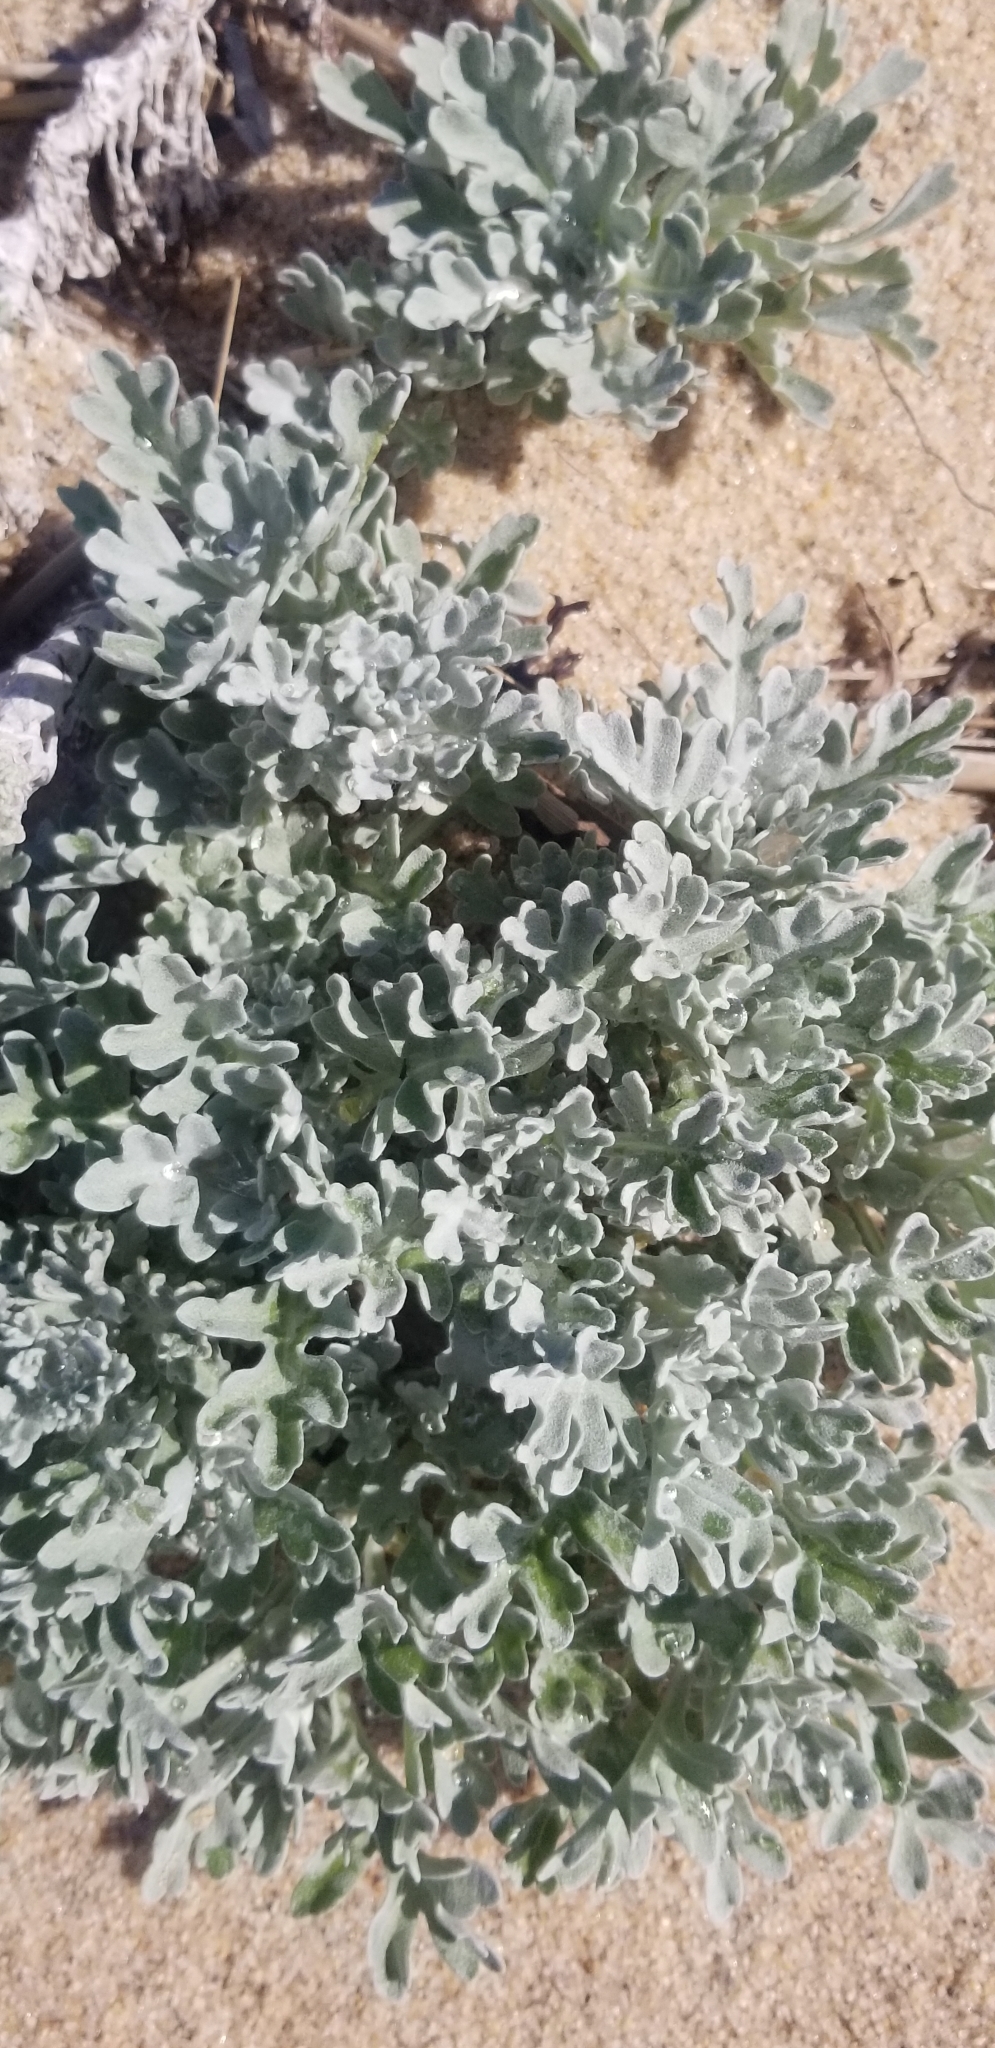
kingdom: Plantae
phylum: Tracheophyta
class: Magnoliopsida
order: Asterales
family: Asteraceae
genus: Artemisia
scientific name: Artemisia stelleriana
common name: Beach wormwood
